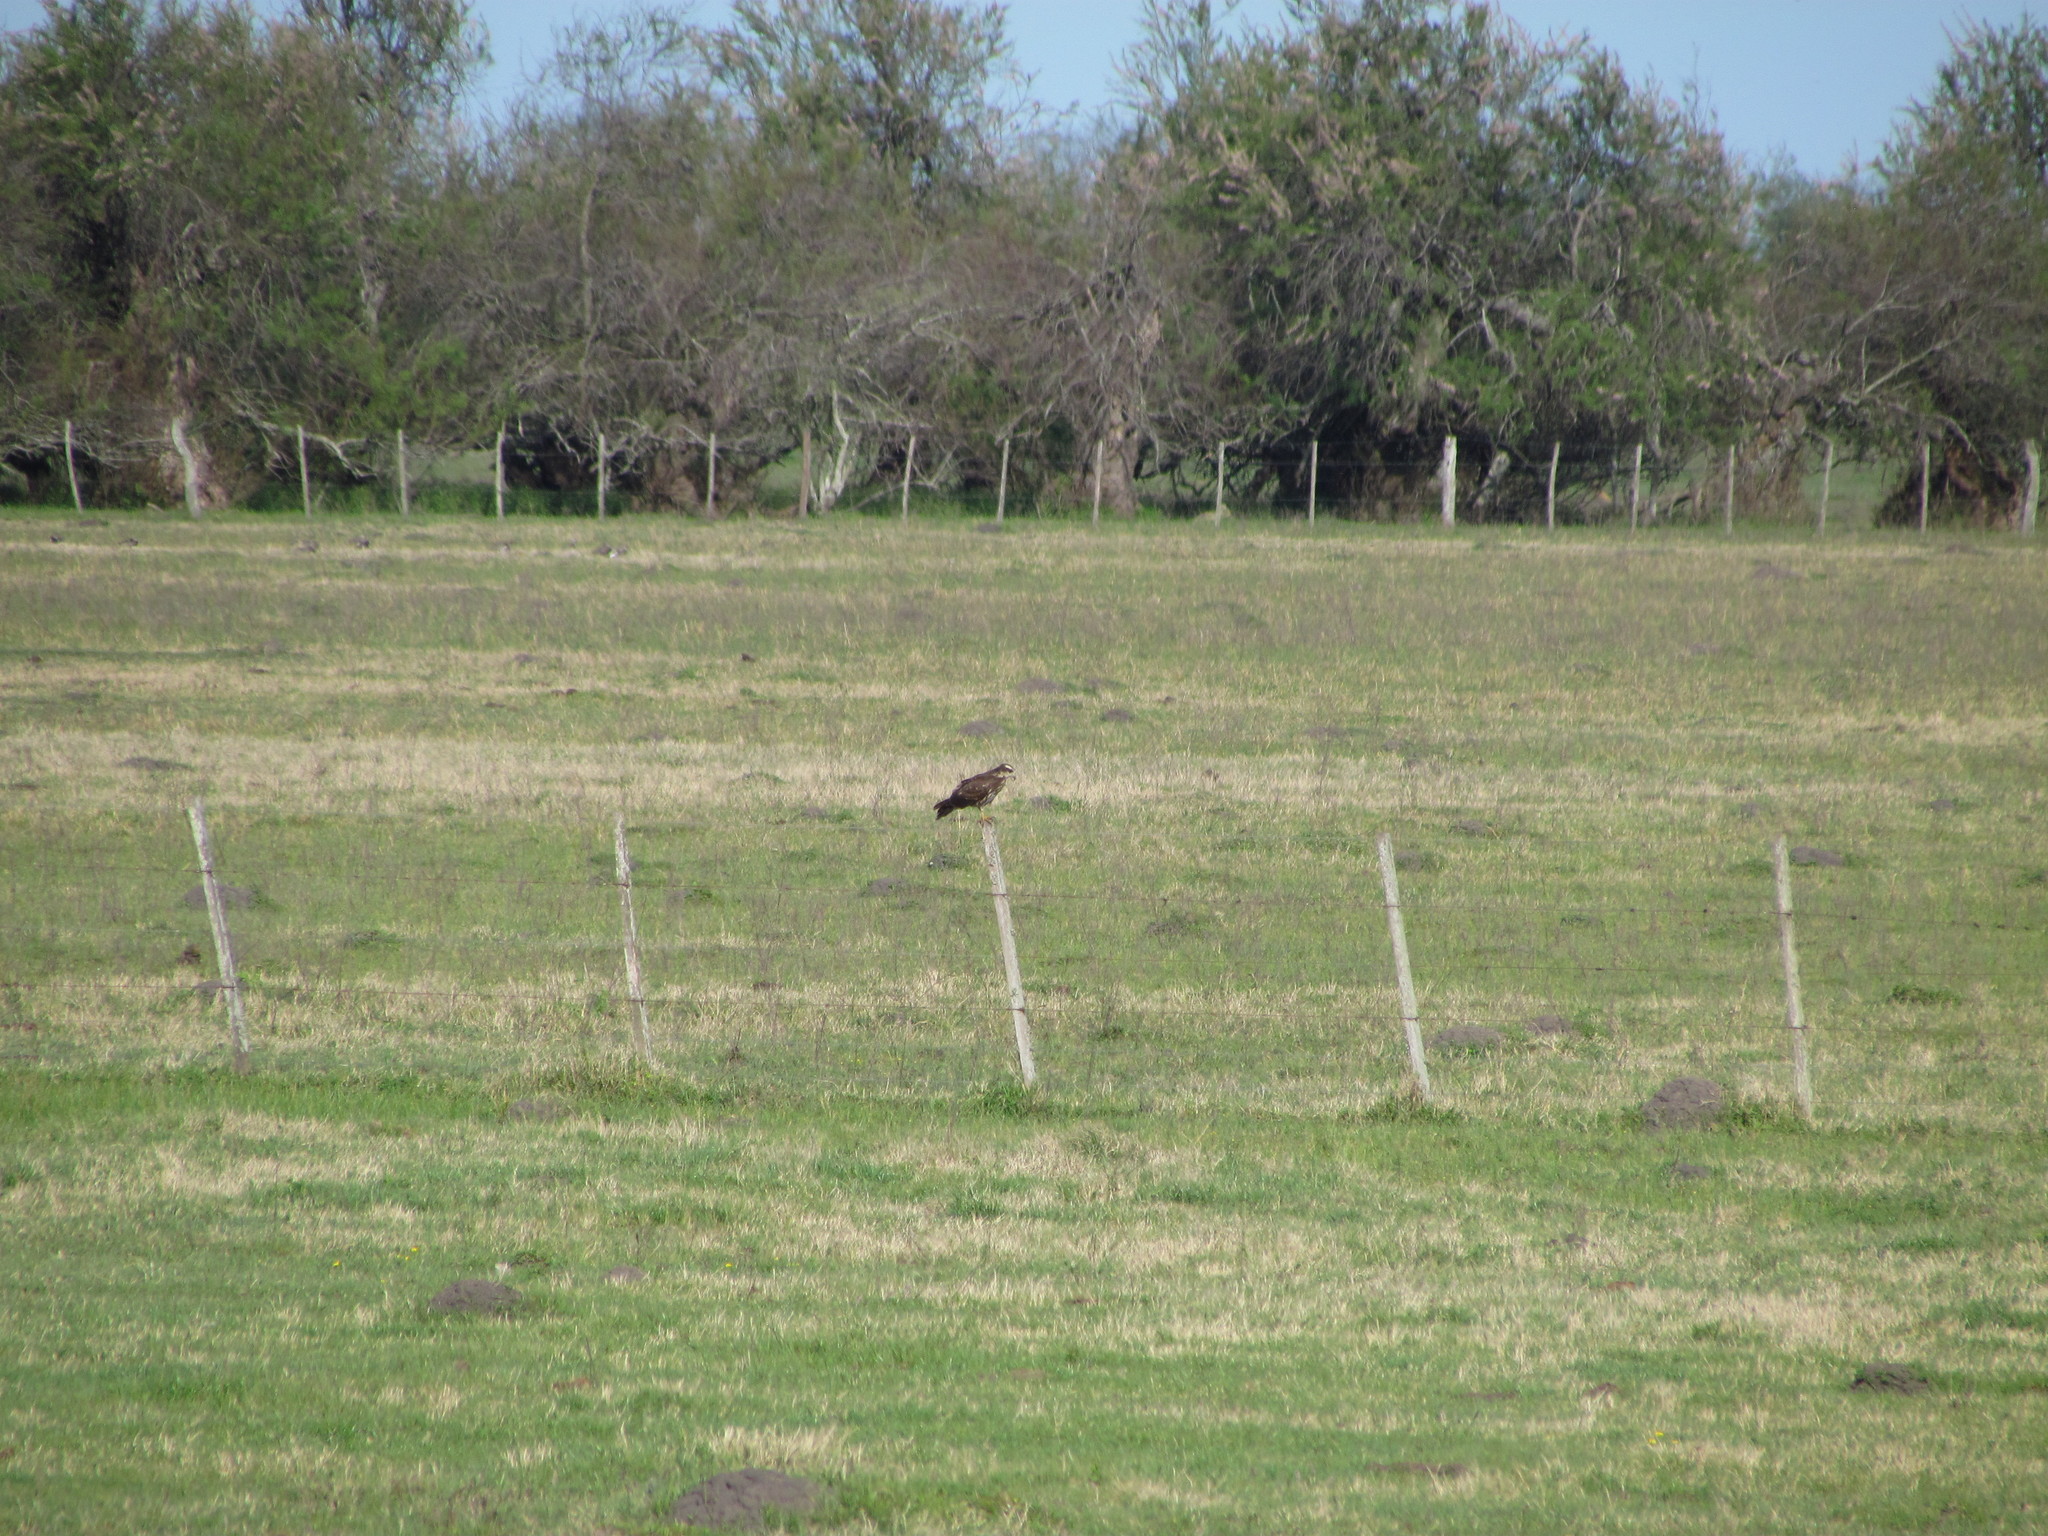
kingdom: Animalia
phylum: Chordata
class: Aves
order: Accipitriformes
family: Accipitridae
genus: Rostrhamus
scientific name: Rostrhamus sociabilis
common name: Snail kite
